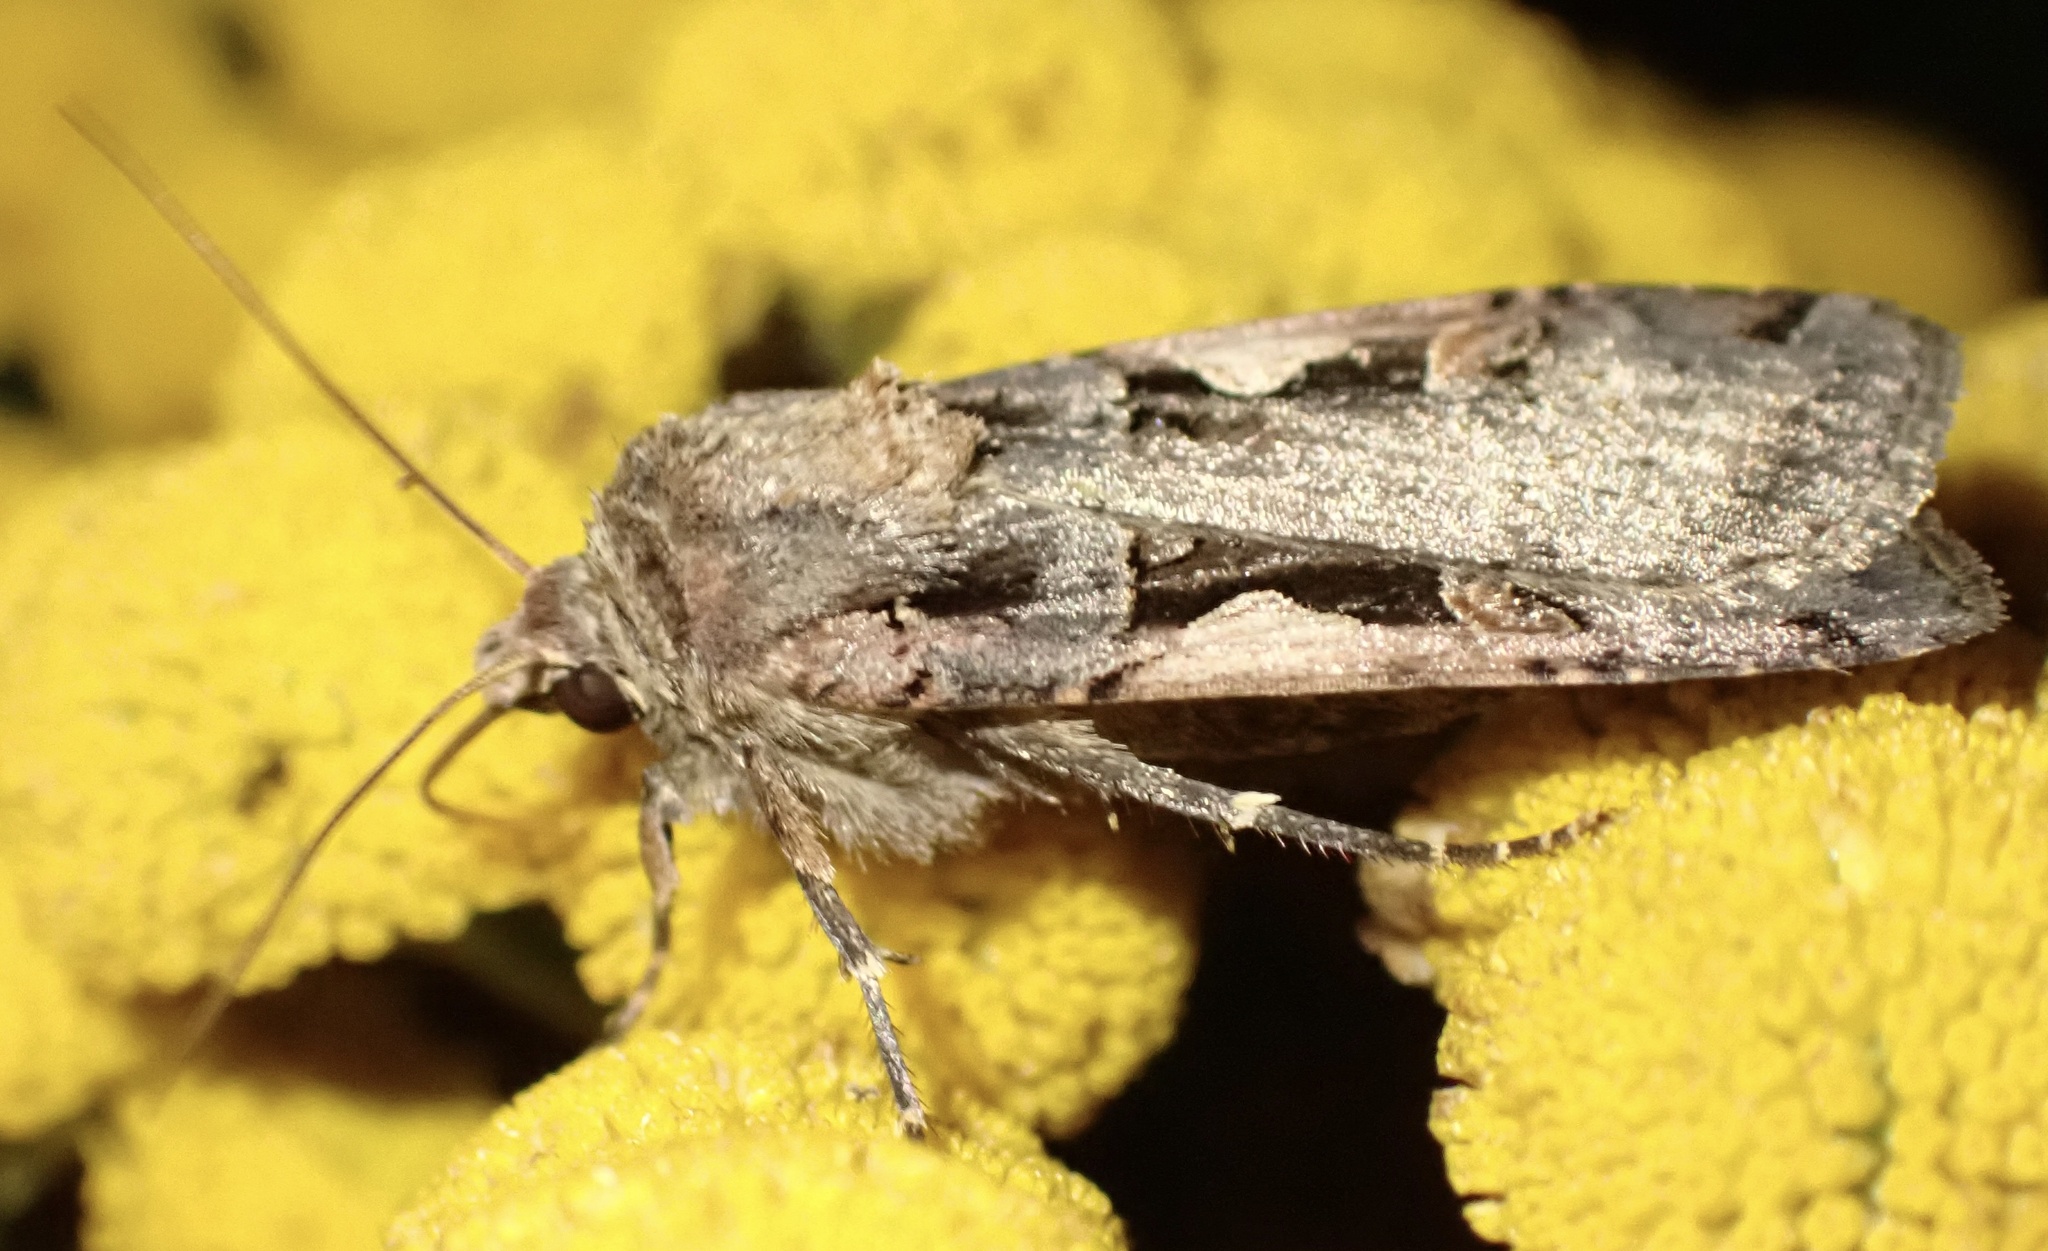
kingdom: Animalia
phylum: Arthropoda
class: Insecta
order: Lepidoptera
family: Noctuidae
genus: Xestia
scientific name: Xestia c-nigrum
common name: Setaceous hebrew character
